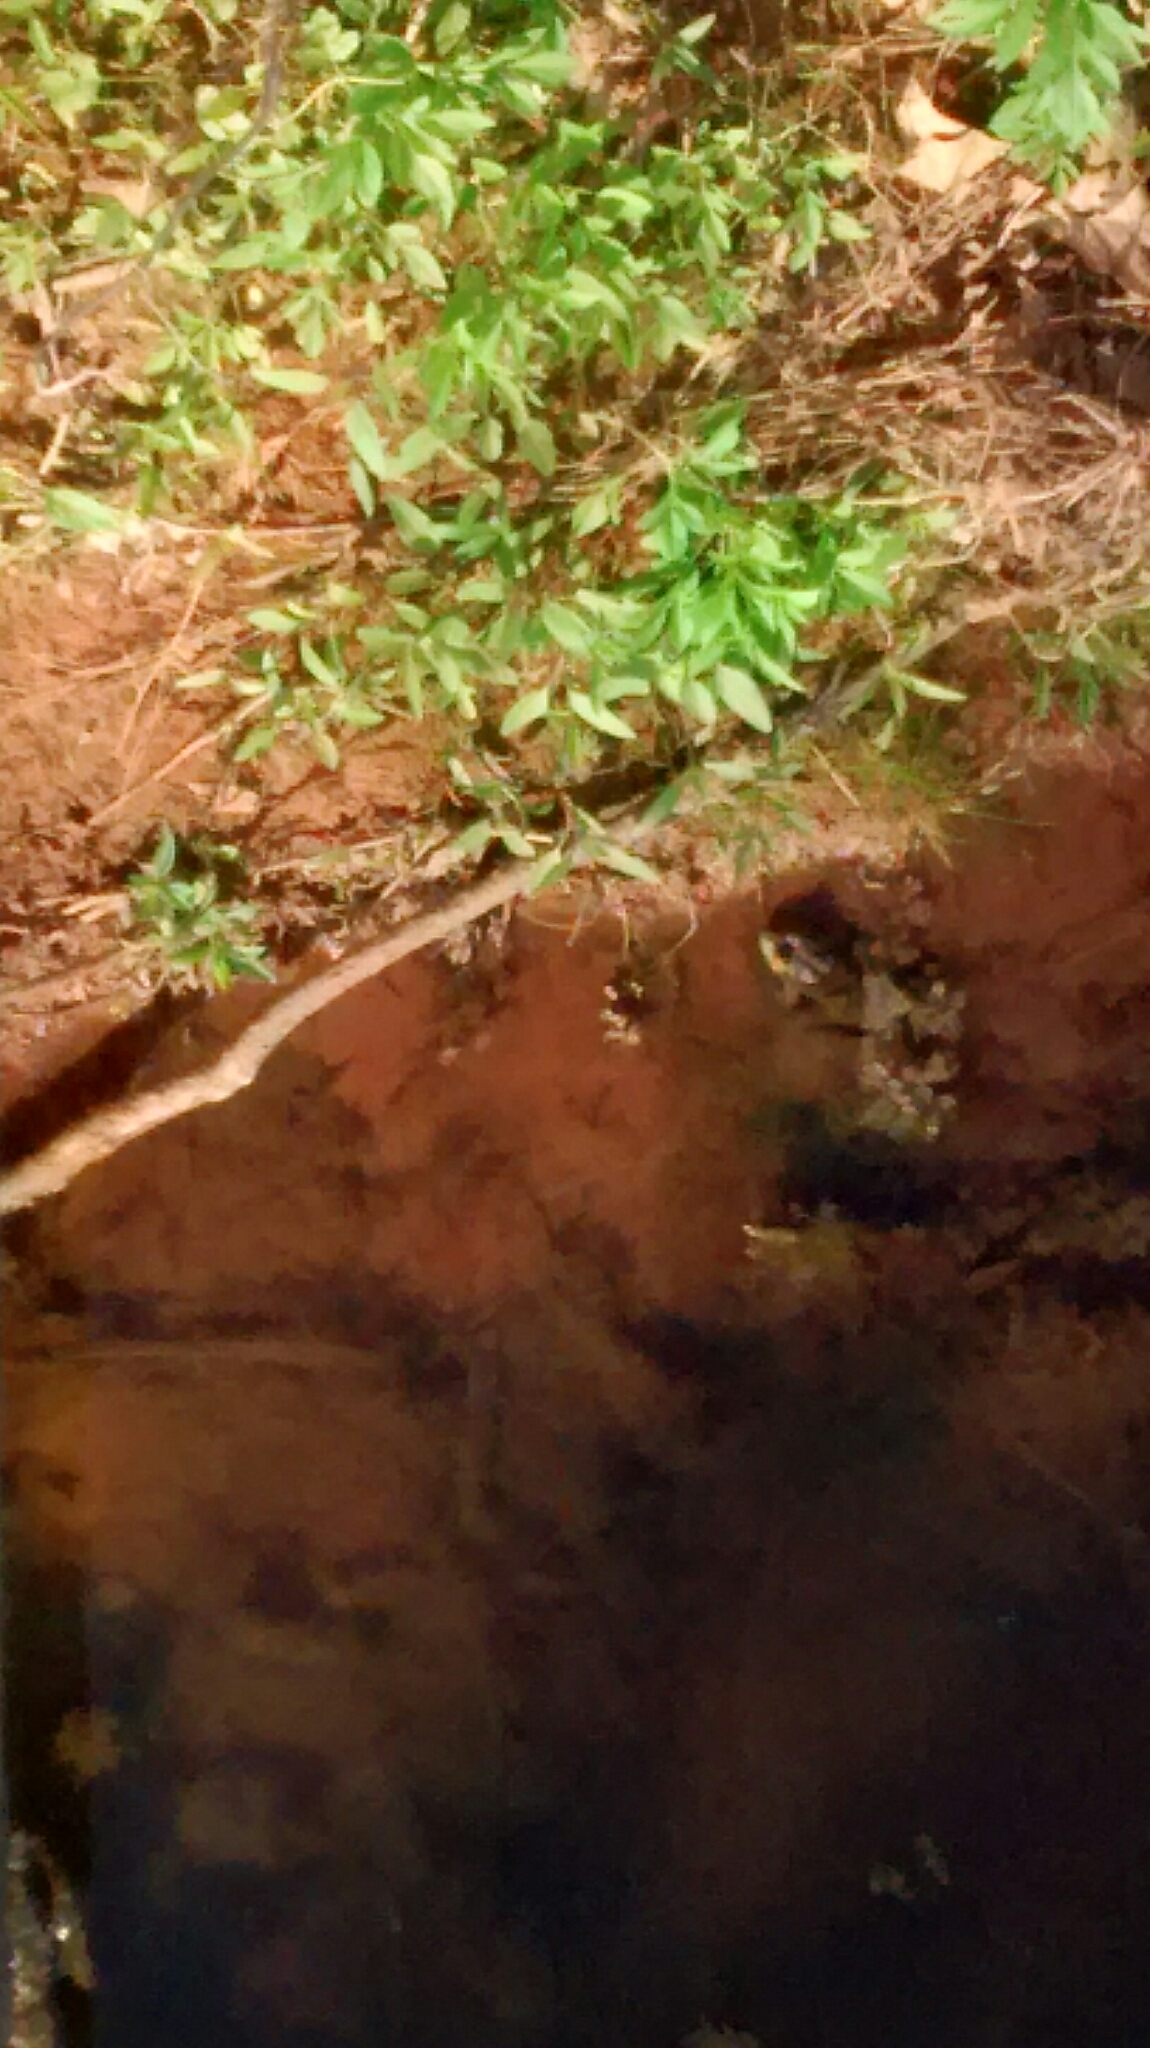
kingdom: Animalia
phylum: Chordata
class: Amphibia
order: Anura
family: Ranidae
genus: Lithobates
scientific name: Lithobates
